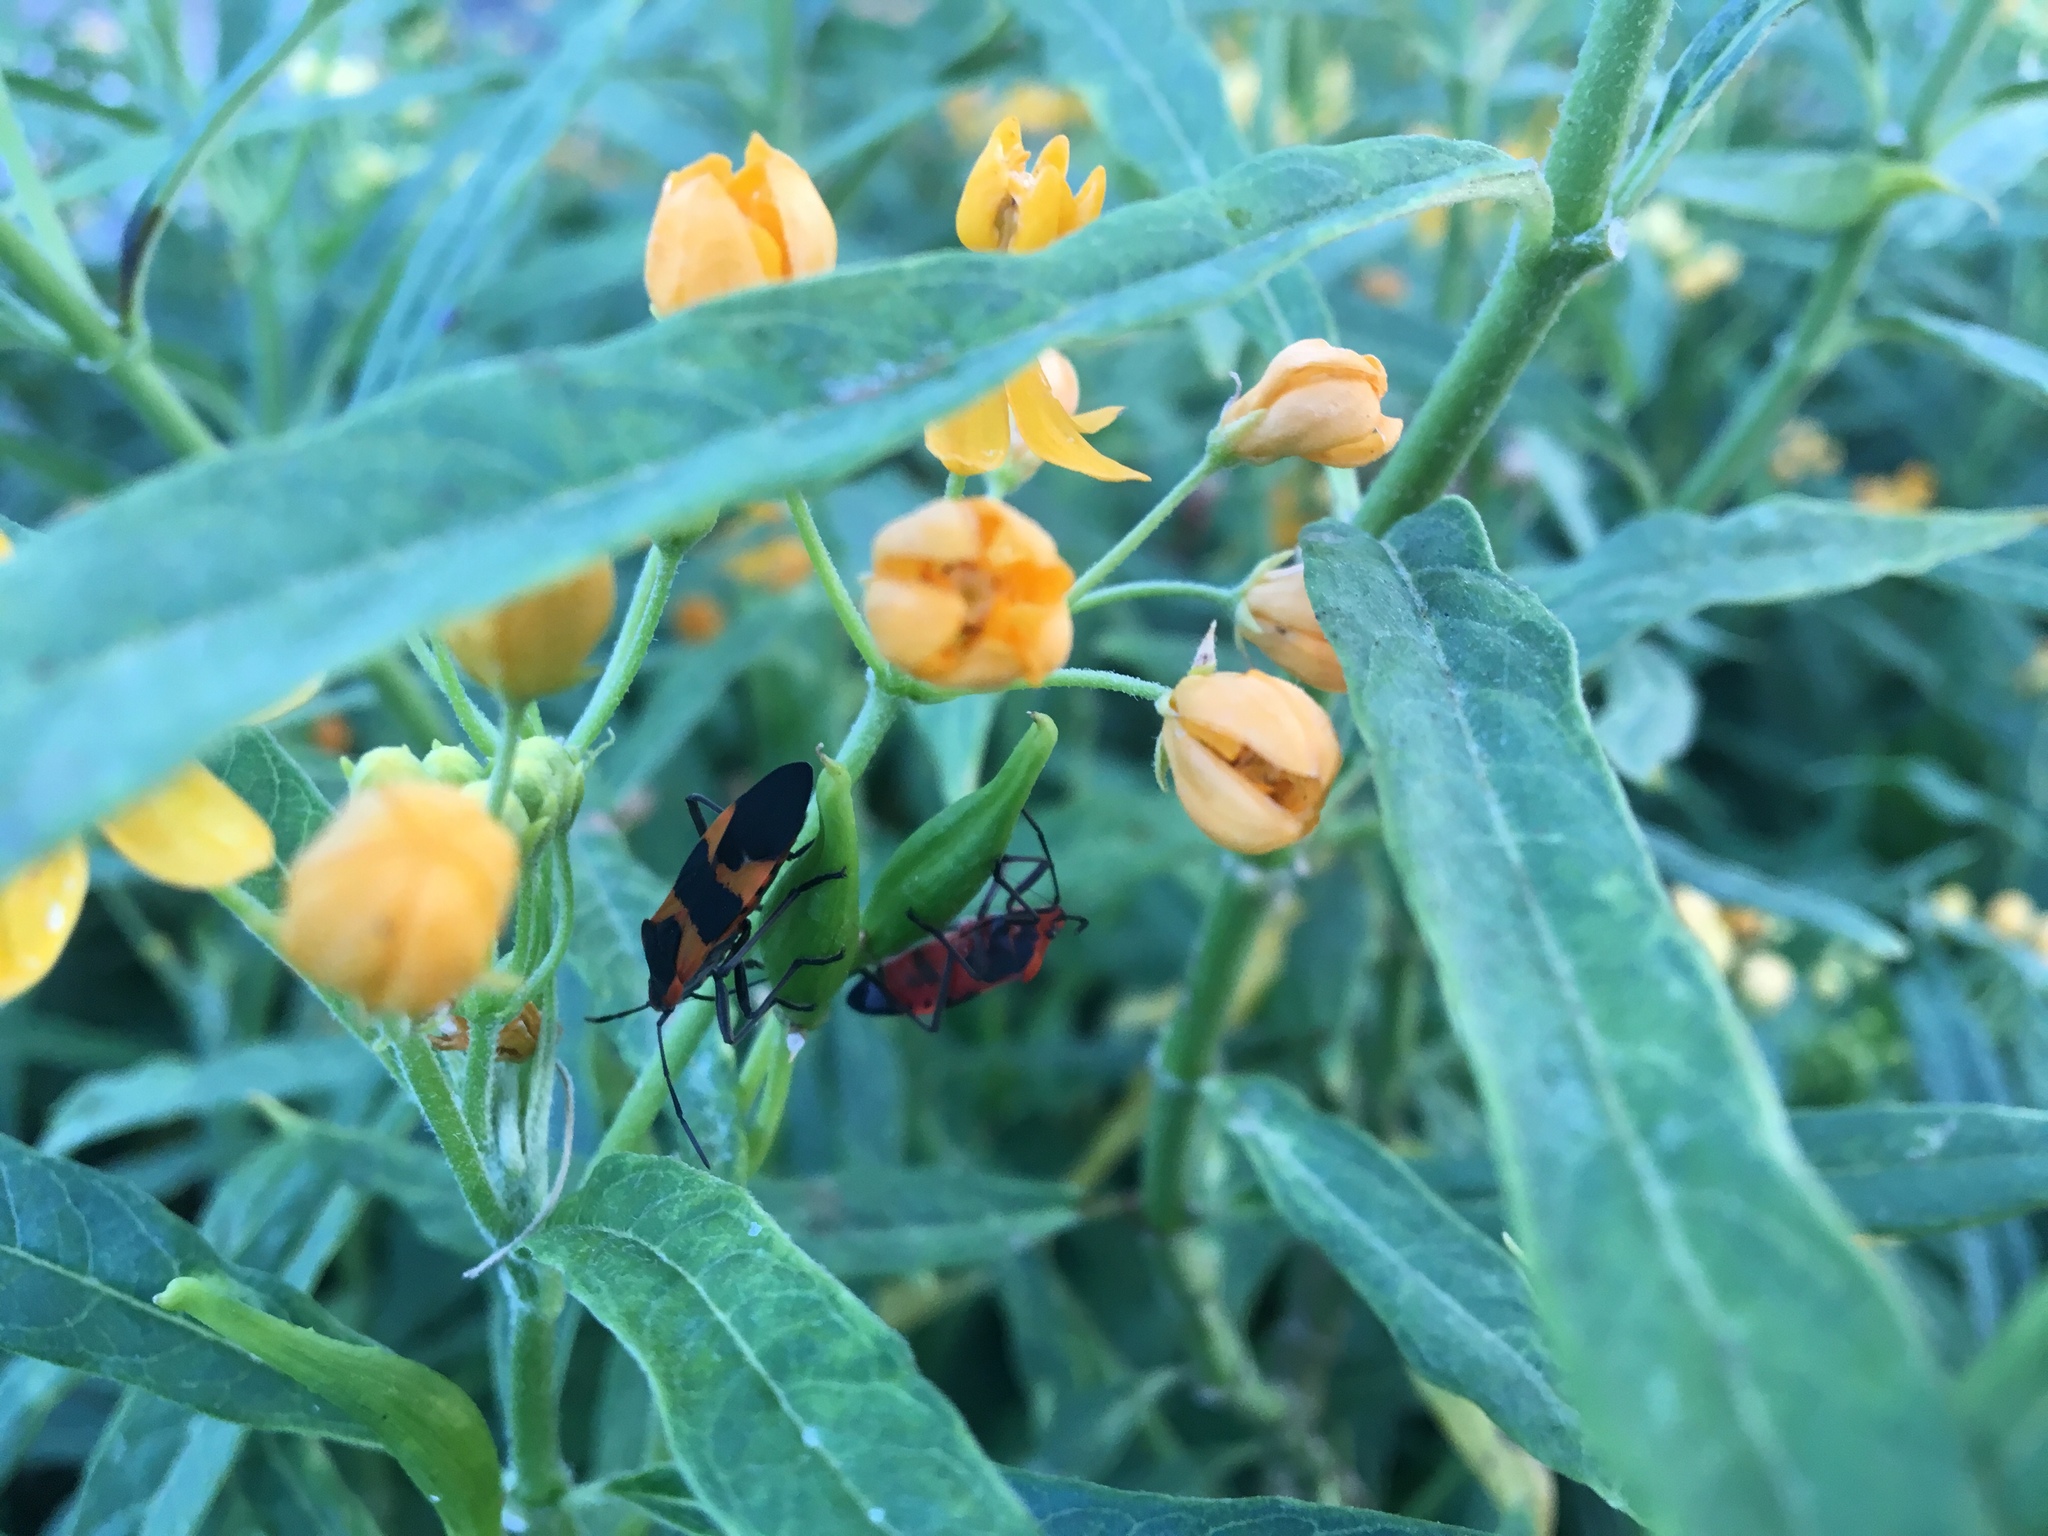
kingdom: Plantae
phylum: Tracheophyta
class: Magnoliopsida
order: Gentianales
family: Apocynaceae
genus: Asclepias
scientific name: Asclepias curassavica
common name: Bloodflower
